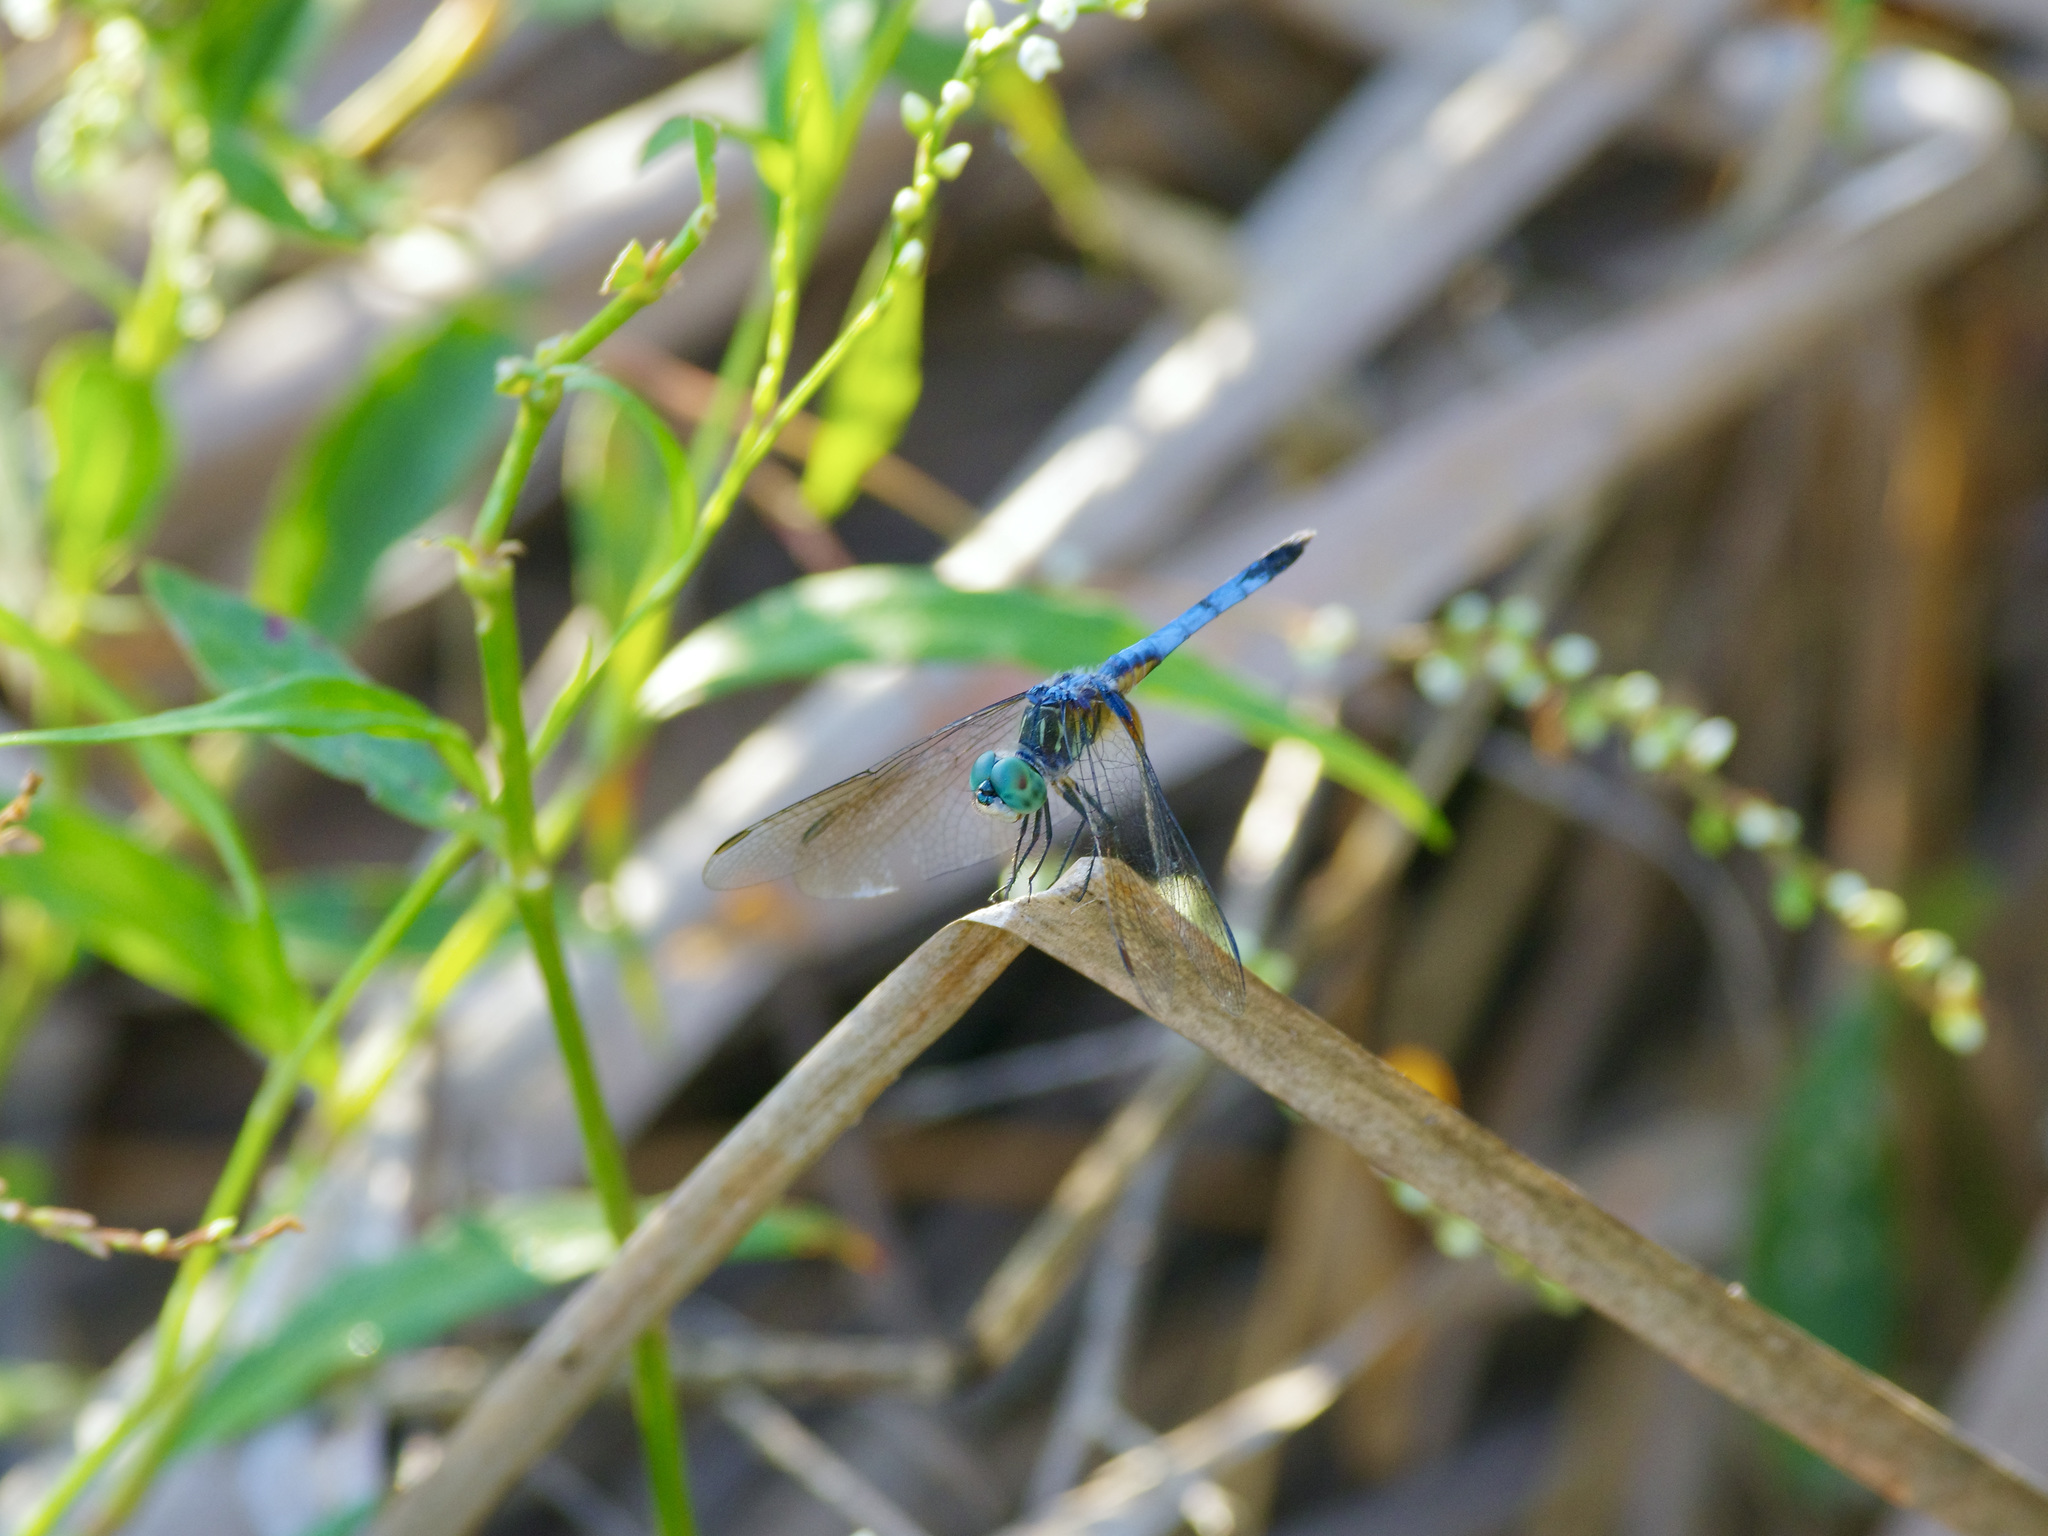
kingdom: Animalia
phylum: Arthropoda
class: Insecta
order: Odonata
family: Libellulidae
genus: Pachydiplax
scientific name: Pachydiplax longipennis
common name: Blue dasher
